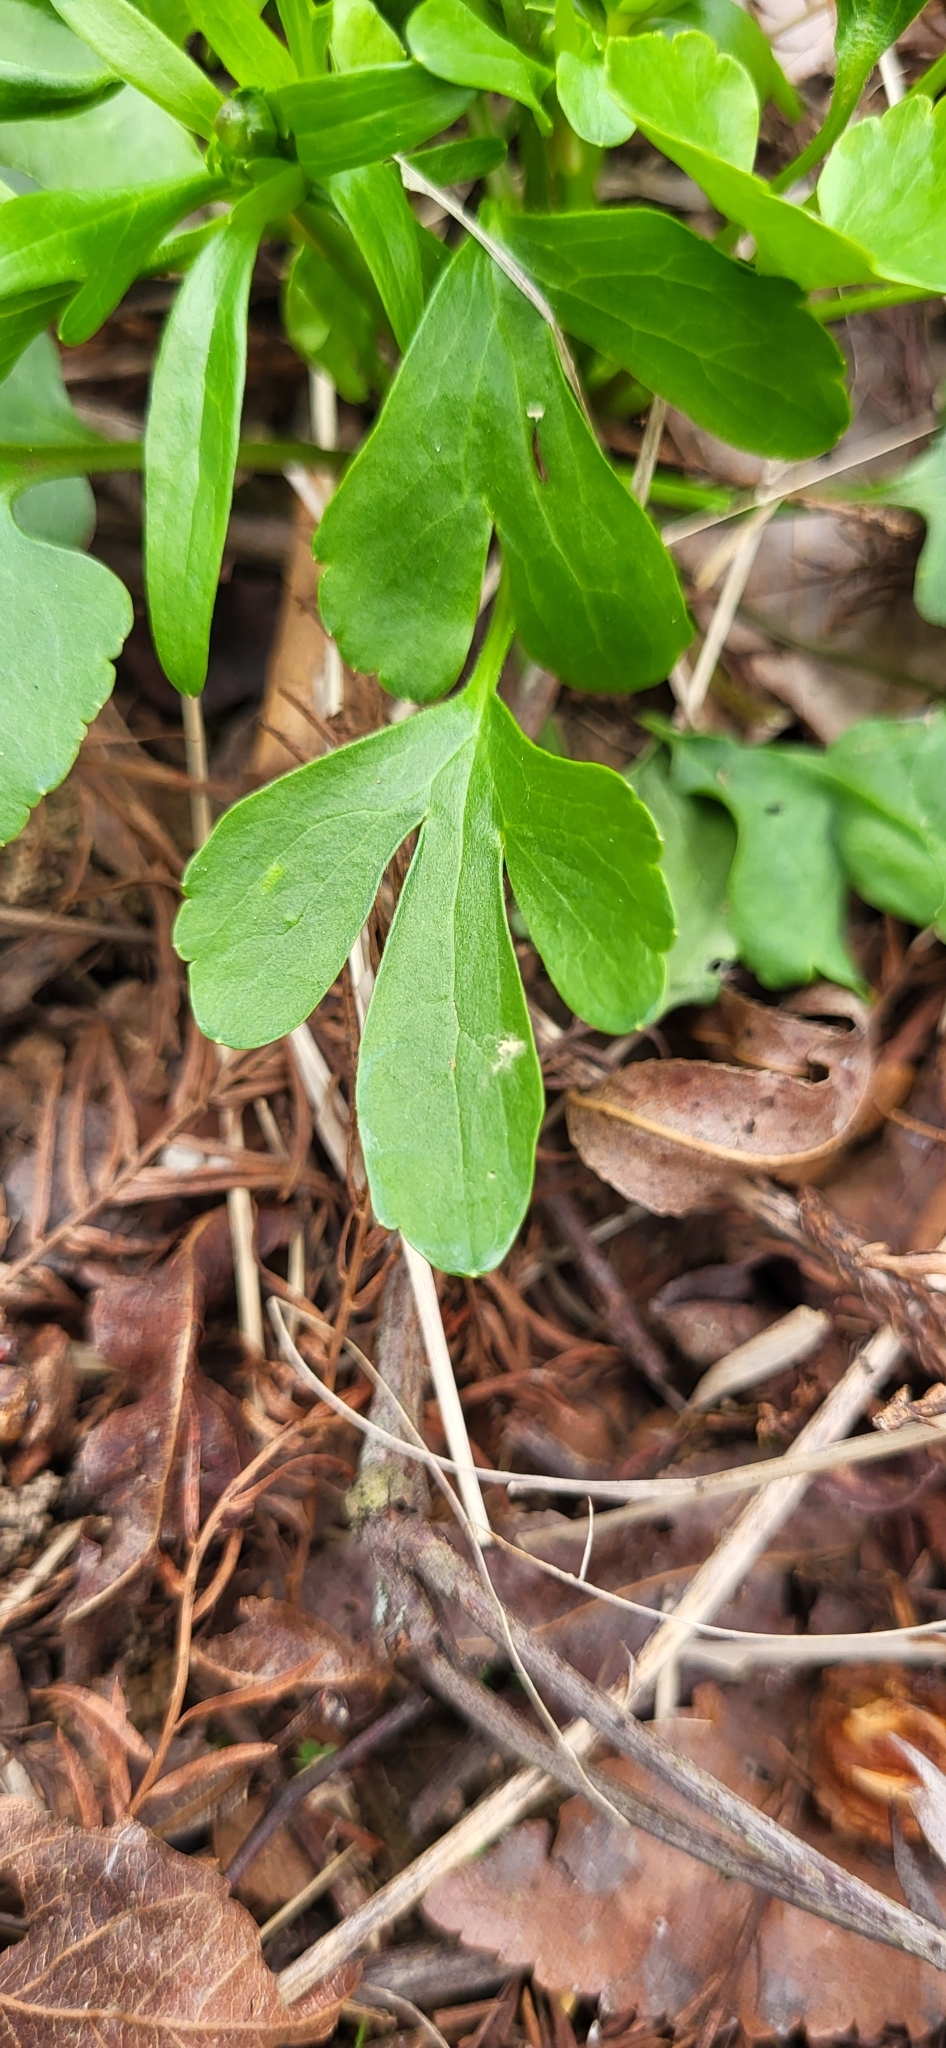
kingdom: Plantae
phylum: Tracheophyta
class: Magnoliopsida
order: Ranunculales
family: Ranunculaceae
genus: Ranunculus
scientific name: Ranunculus abortivus
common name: Early wood buttercup
